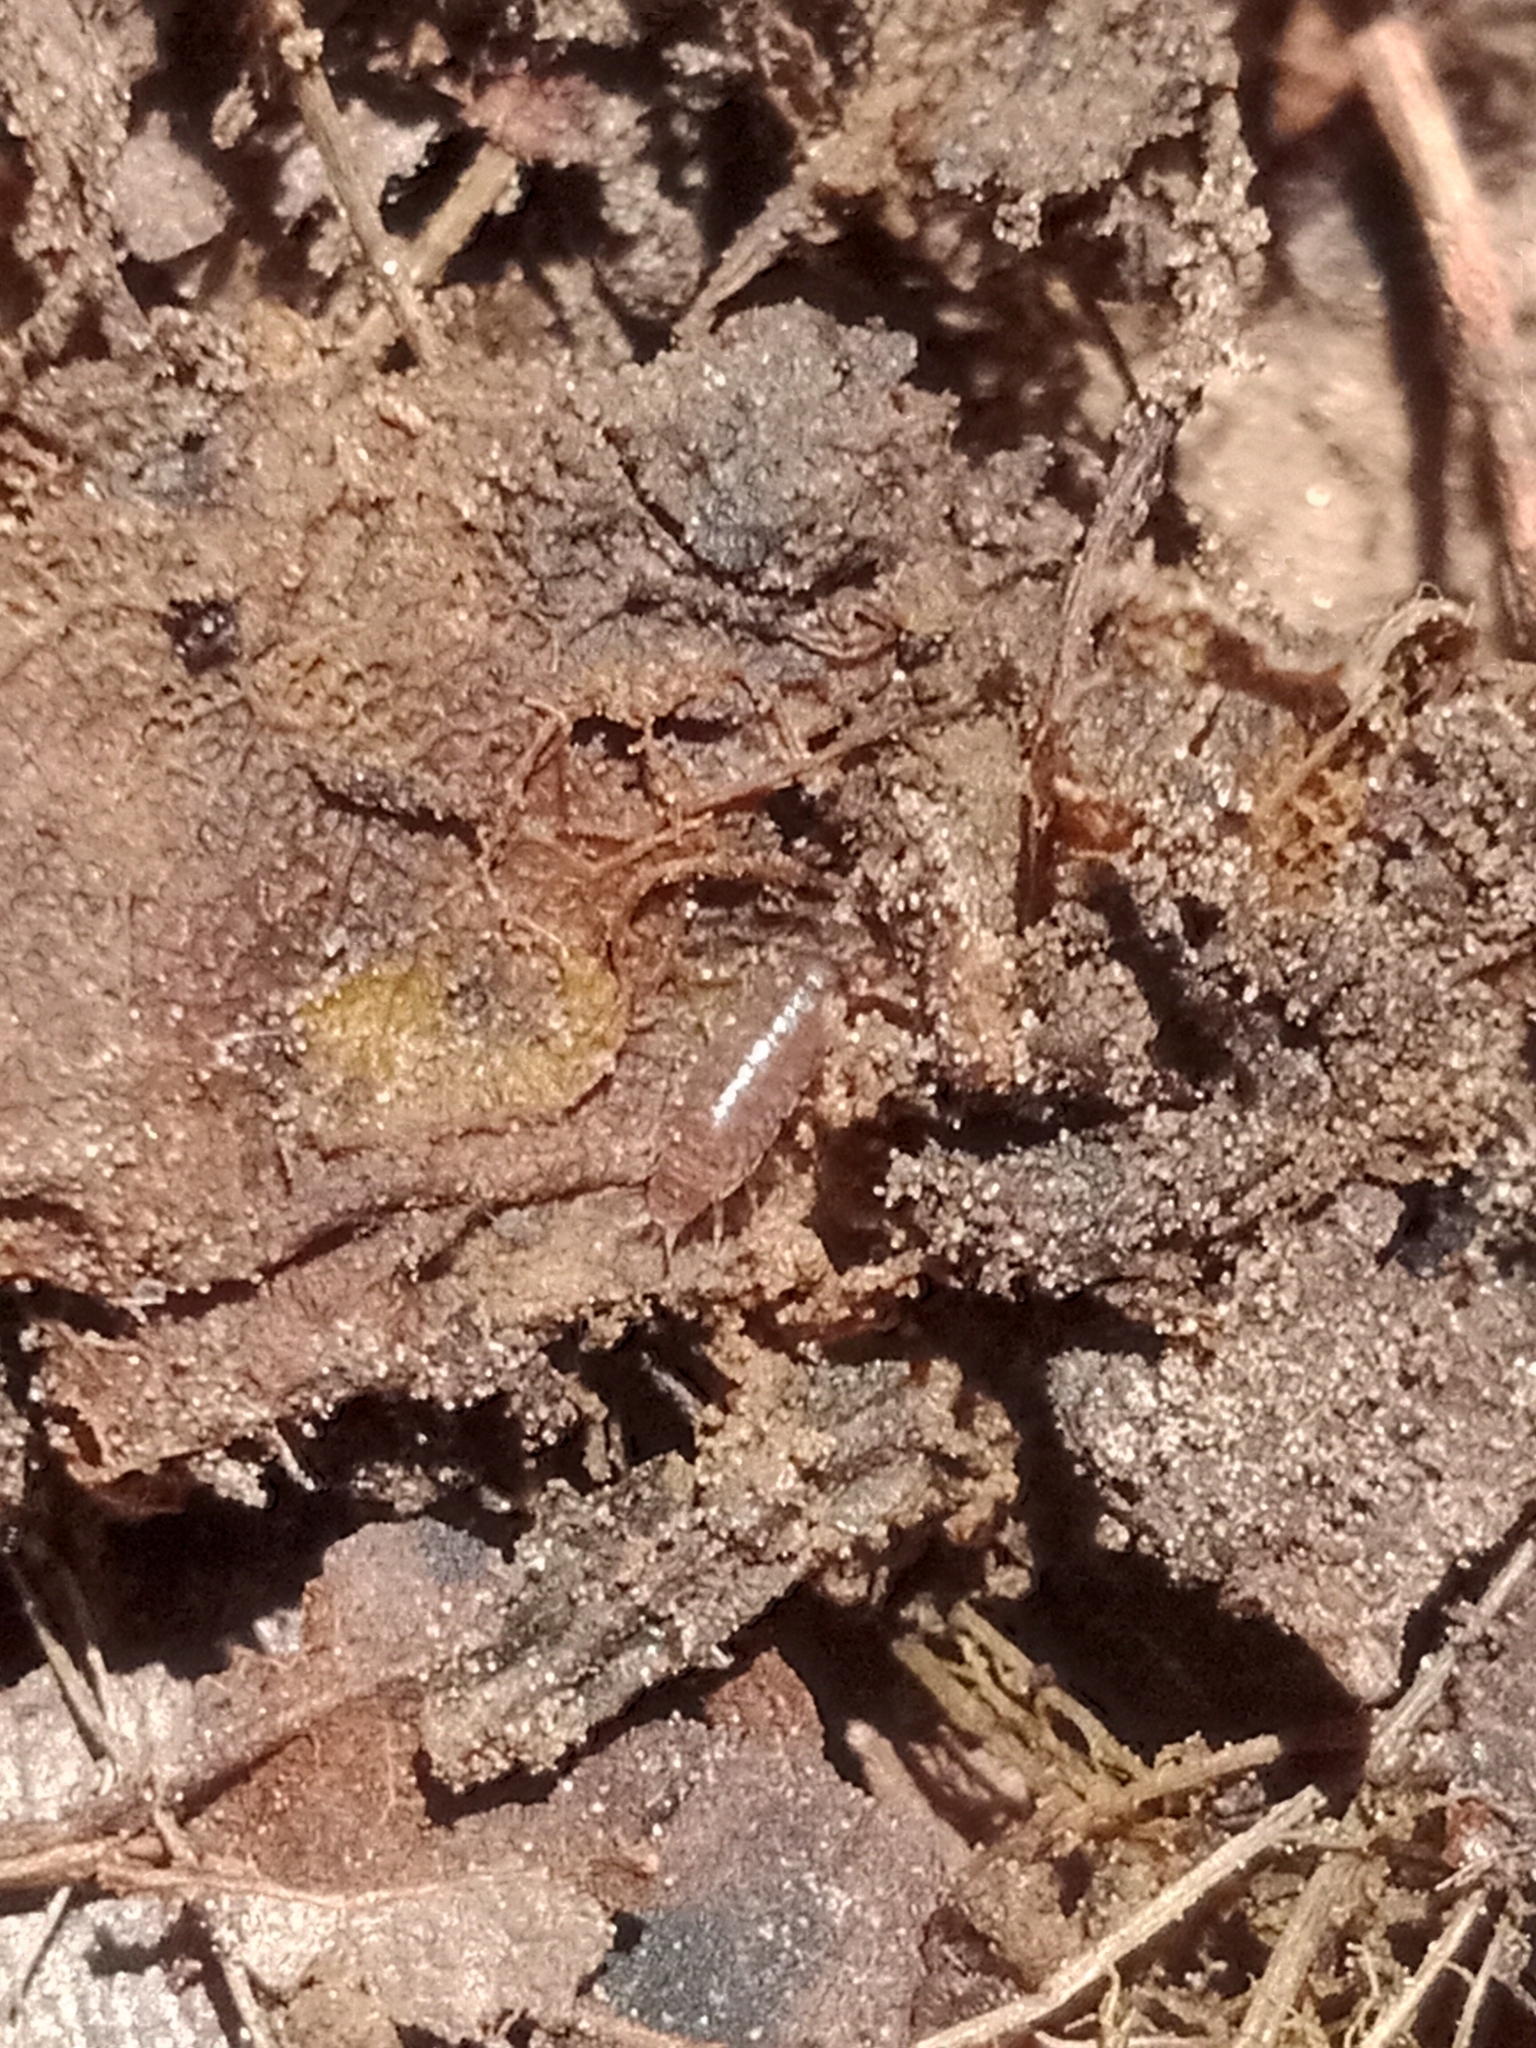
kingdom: Animalia
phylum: Arthropoda
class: Malacostraca
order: Isopoda
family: Trichoniscidae
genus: Hyloniscus
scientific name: Hyloniscus riparius
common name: Isopod
